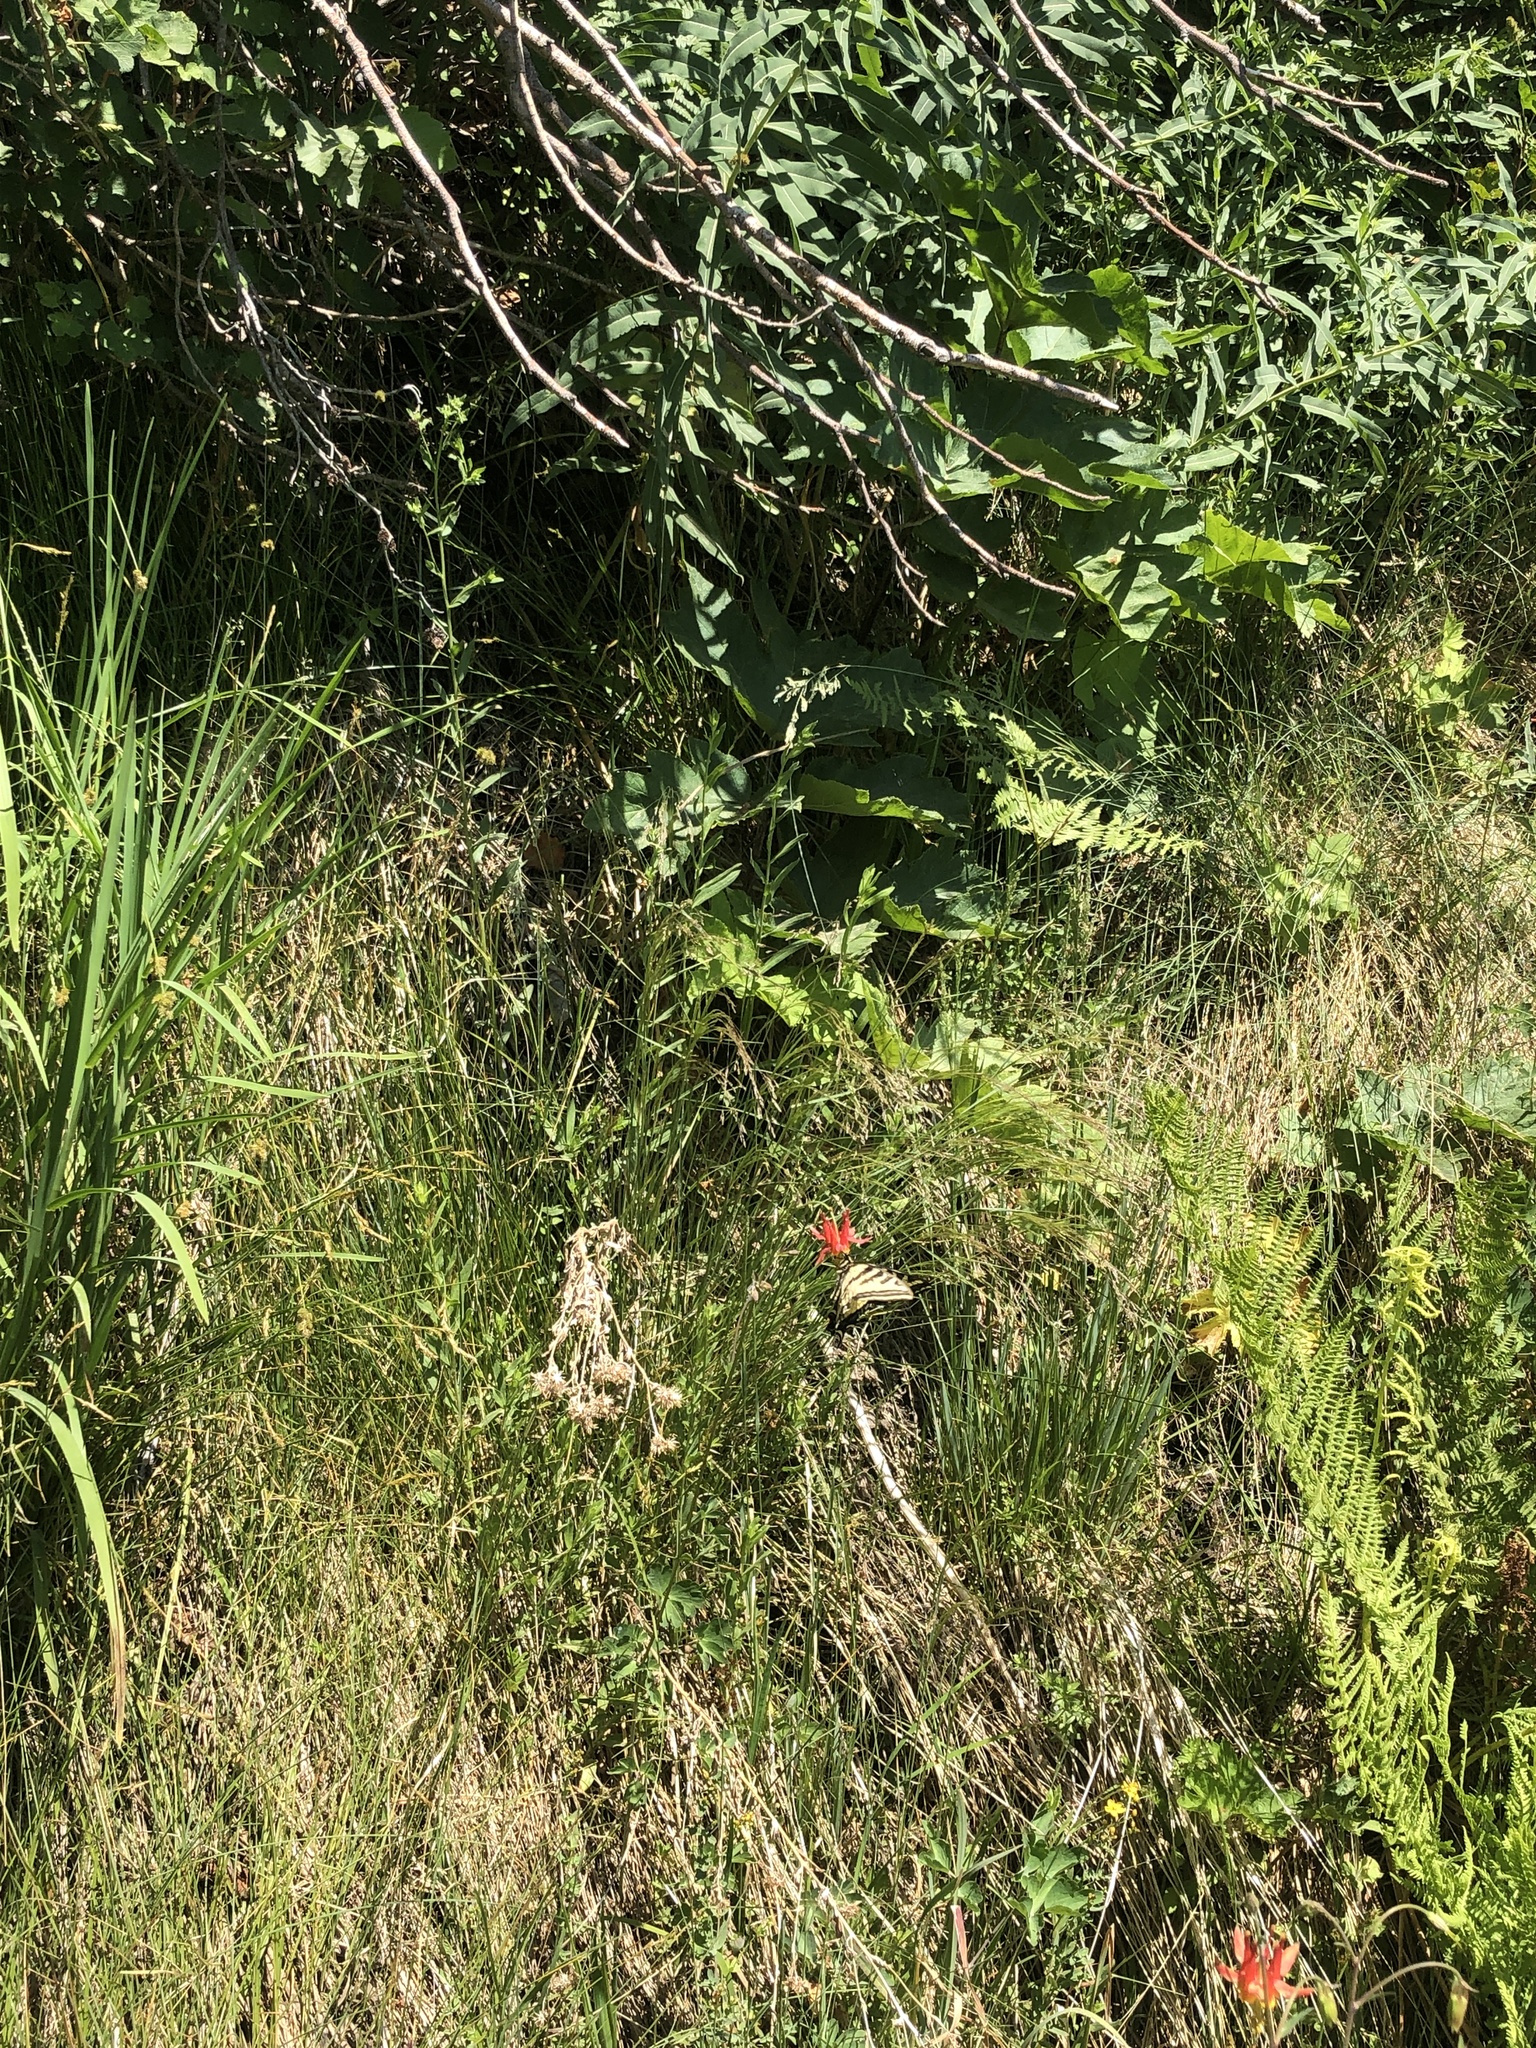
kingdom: Animalia
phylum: Arthropoda
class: Insecta
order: Lepidoptera
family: Papilionidae
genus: Papilio
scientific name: Papilio rutulus
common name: Western tiger swallowtail
